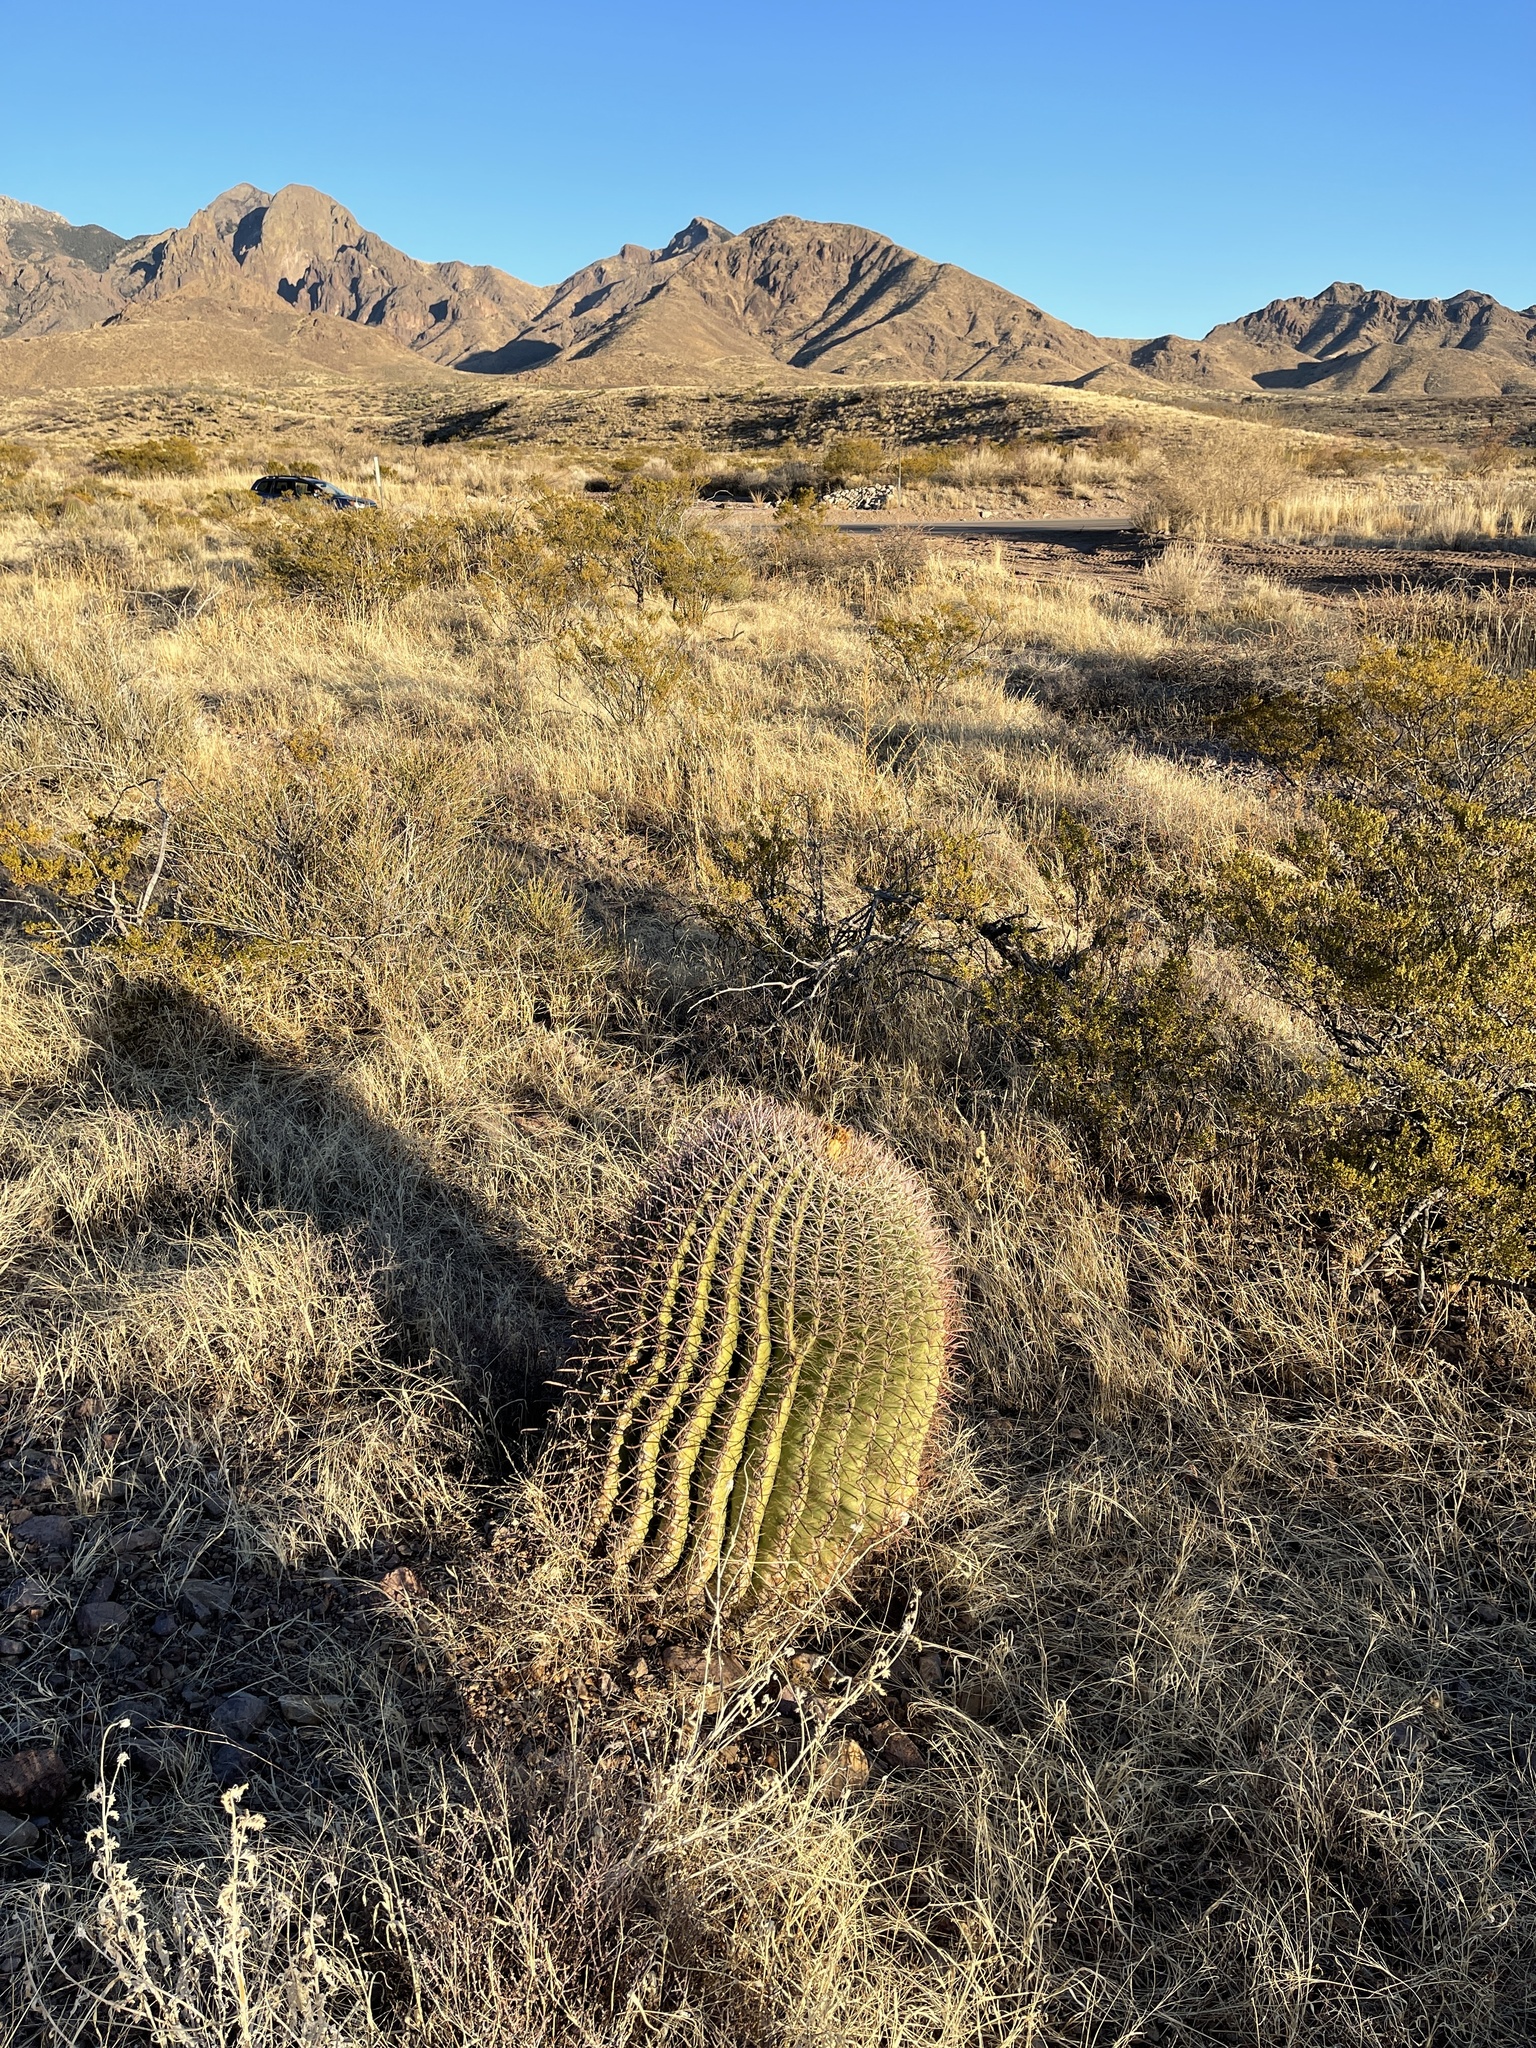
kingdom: Plantae
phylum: Tracheophyta
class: Magnoliopsida
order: Caryophyllales
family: Cactaceae
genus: Ferocactus
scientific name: Ferocactus wislizeni
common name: Candy barrel cactus
